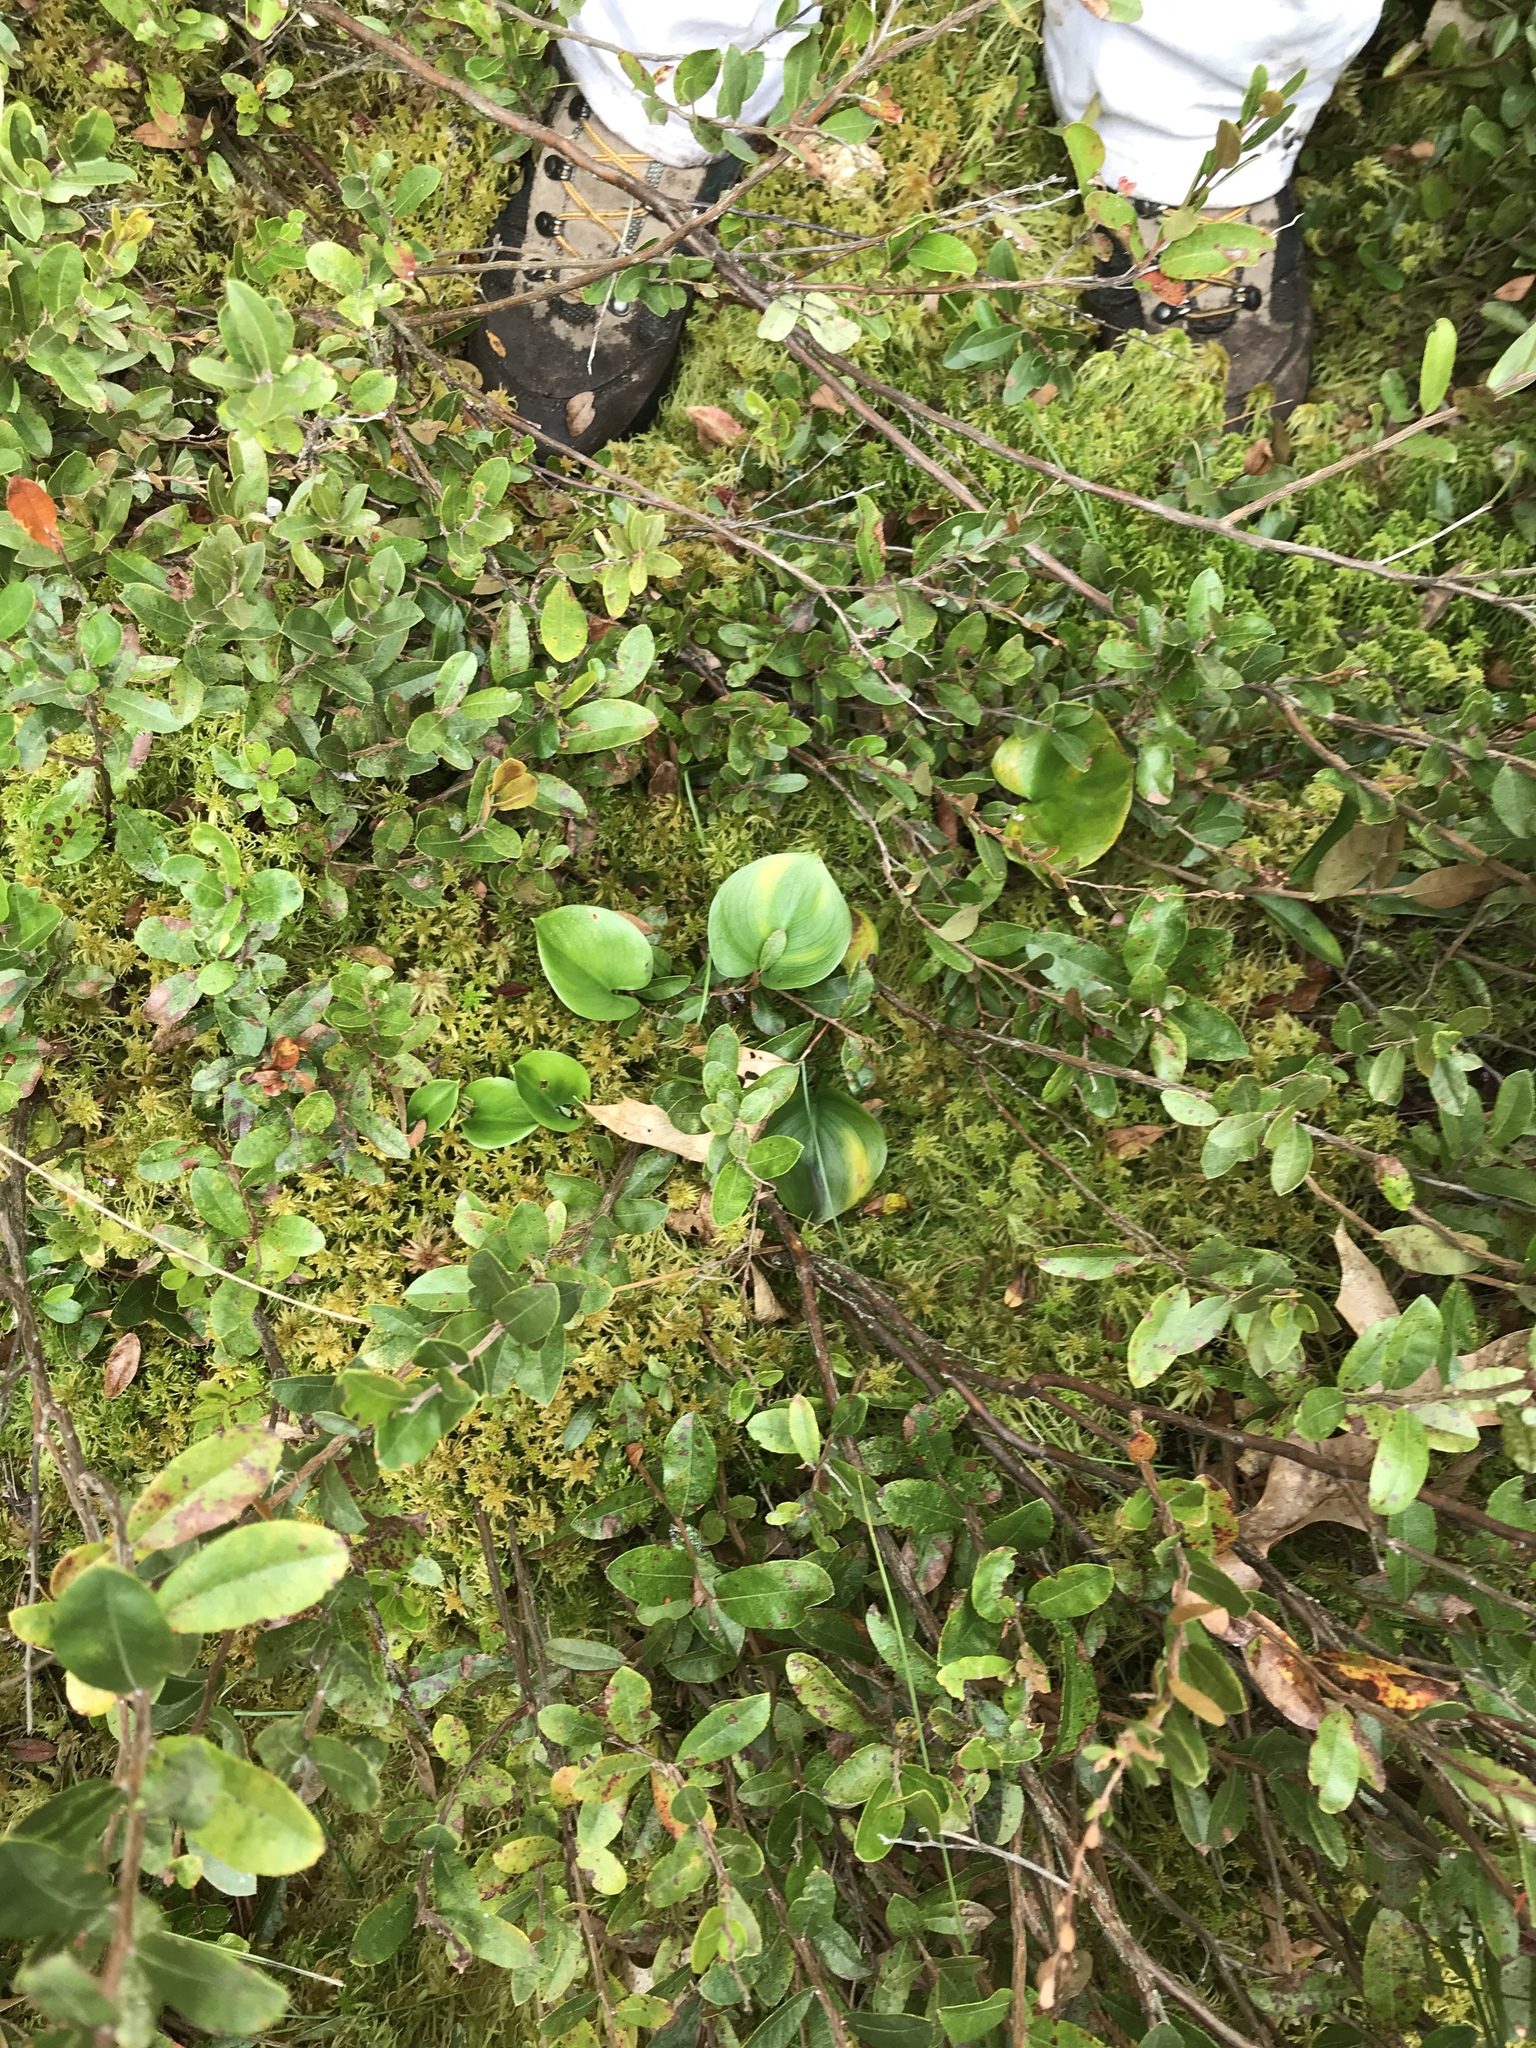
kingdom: Plantae
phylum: Tracheophyta
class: Liliopsida
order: Alismatales
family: Araceae
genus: Calla
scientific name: Calla palustris
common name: Bog arum
